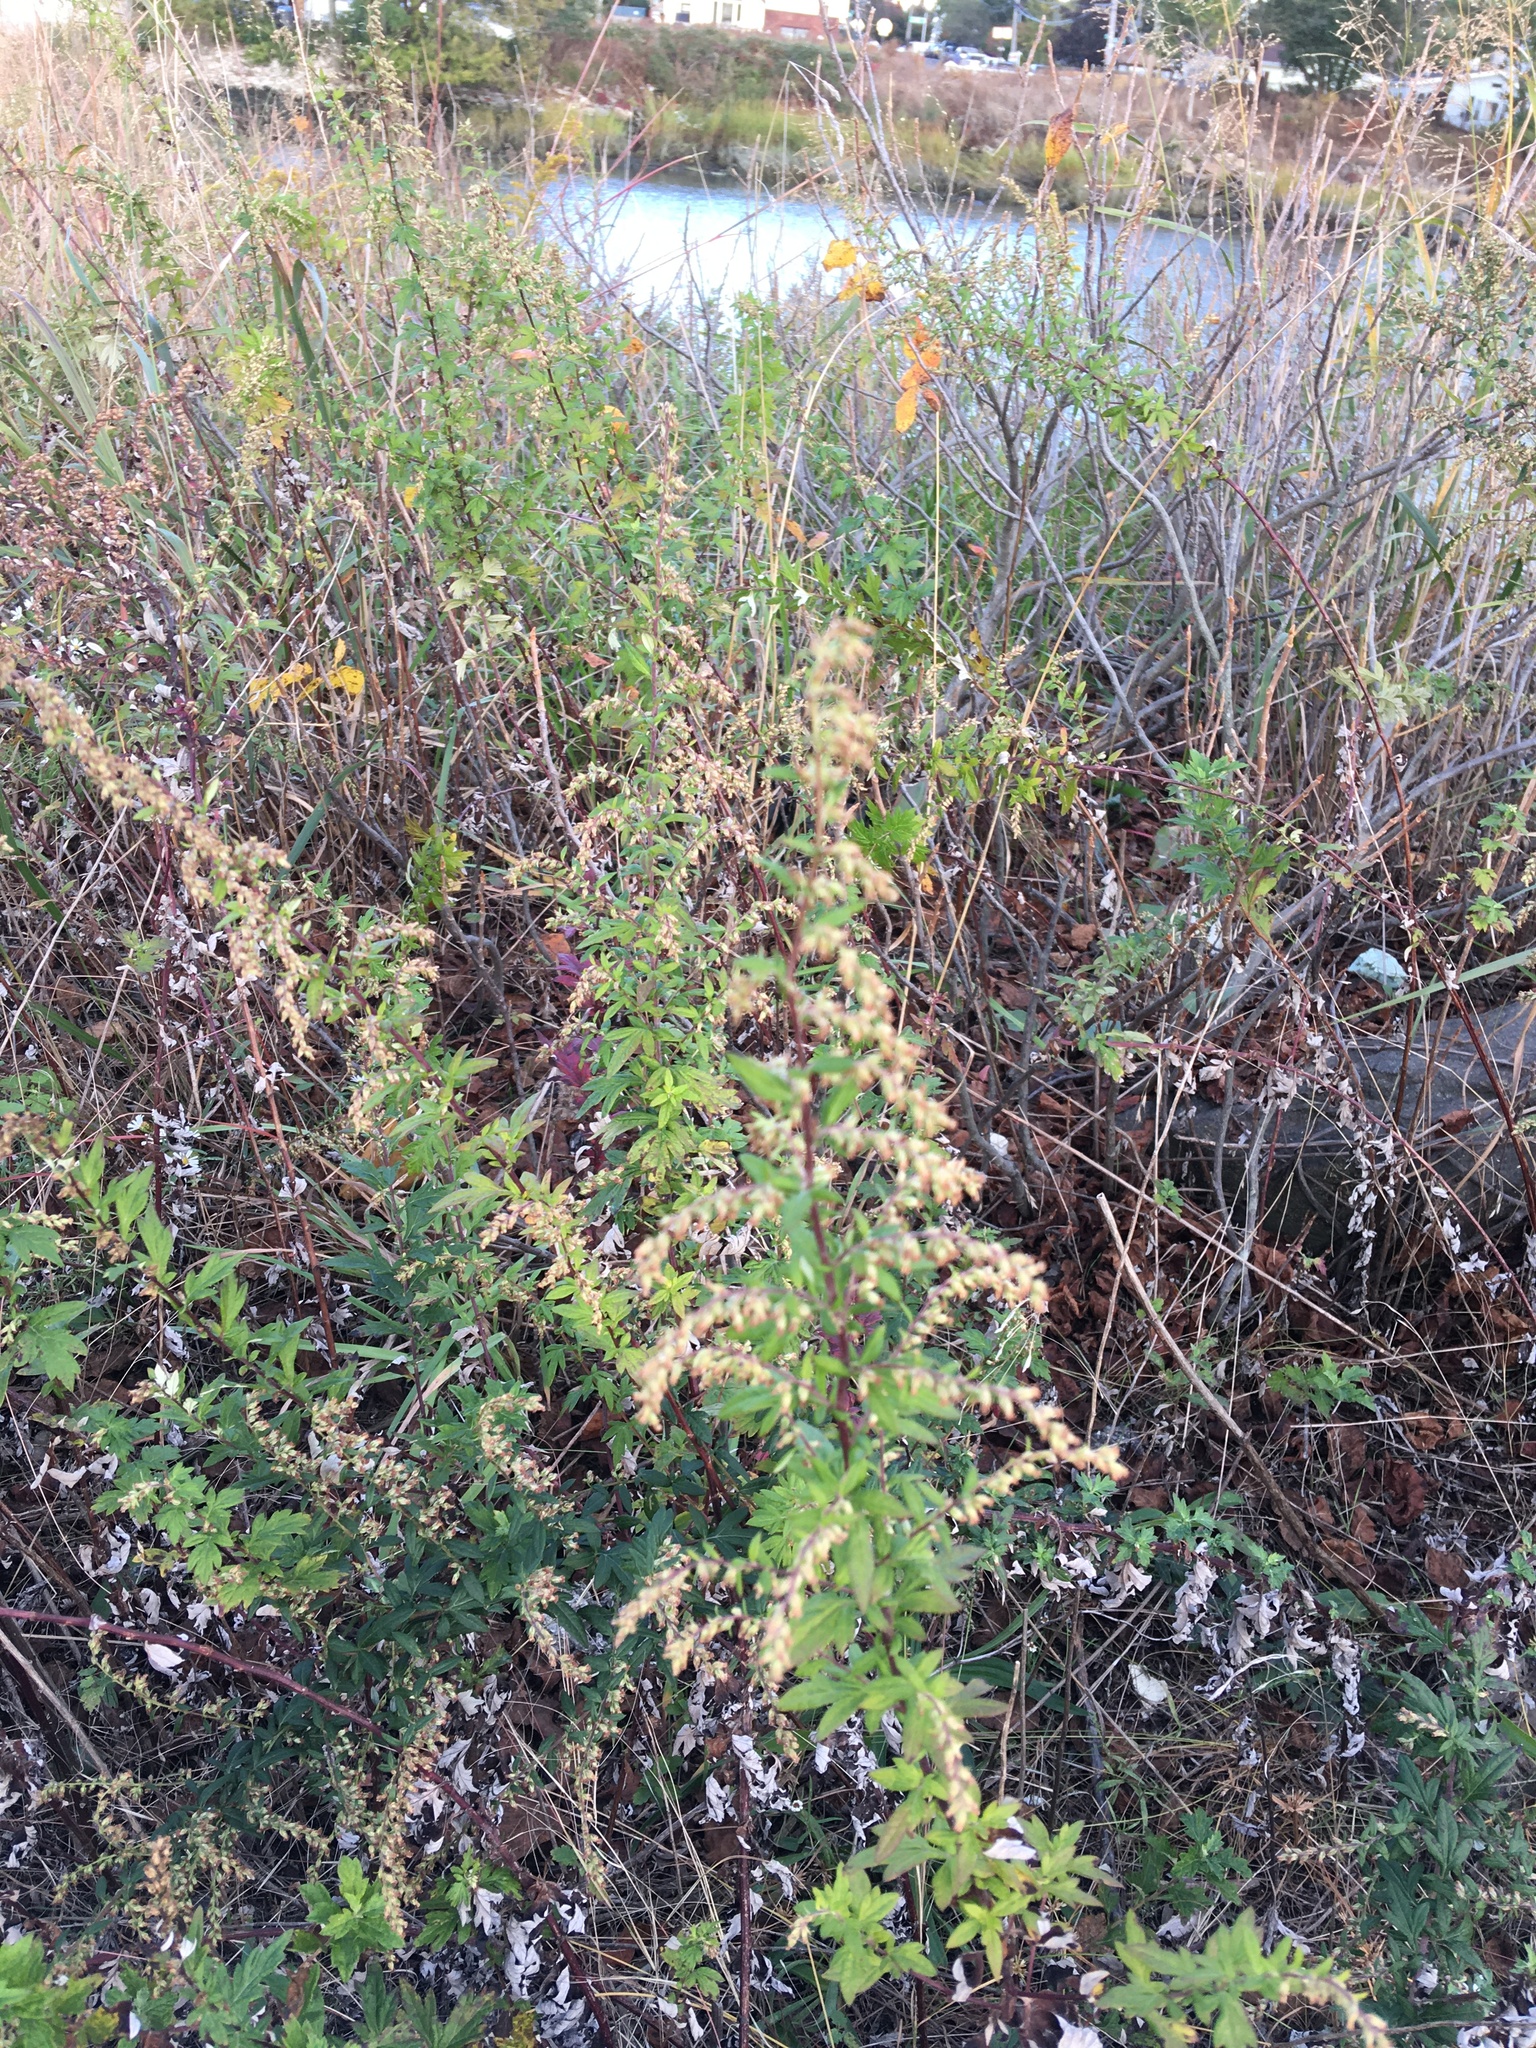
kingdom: Plantae
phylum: Tracheophyta
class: Magnoliopsida
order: Asterales
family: Asteraceae
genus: Artemisia
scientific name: Artemisia vulgaris
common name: Mugwort
